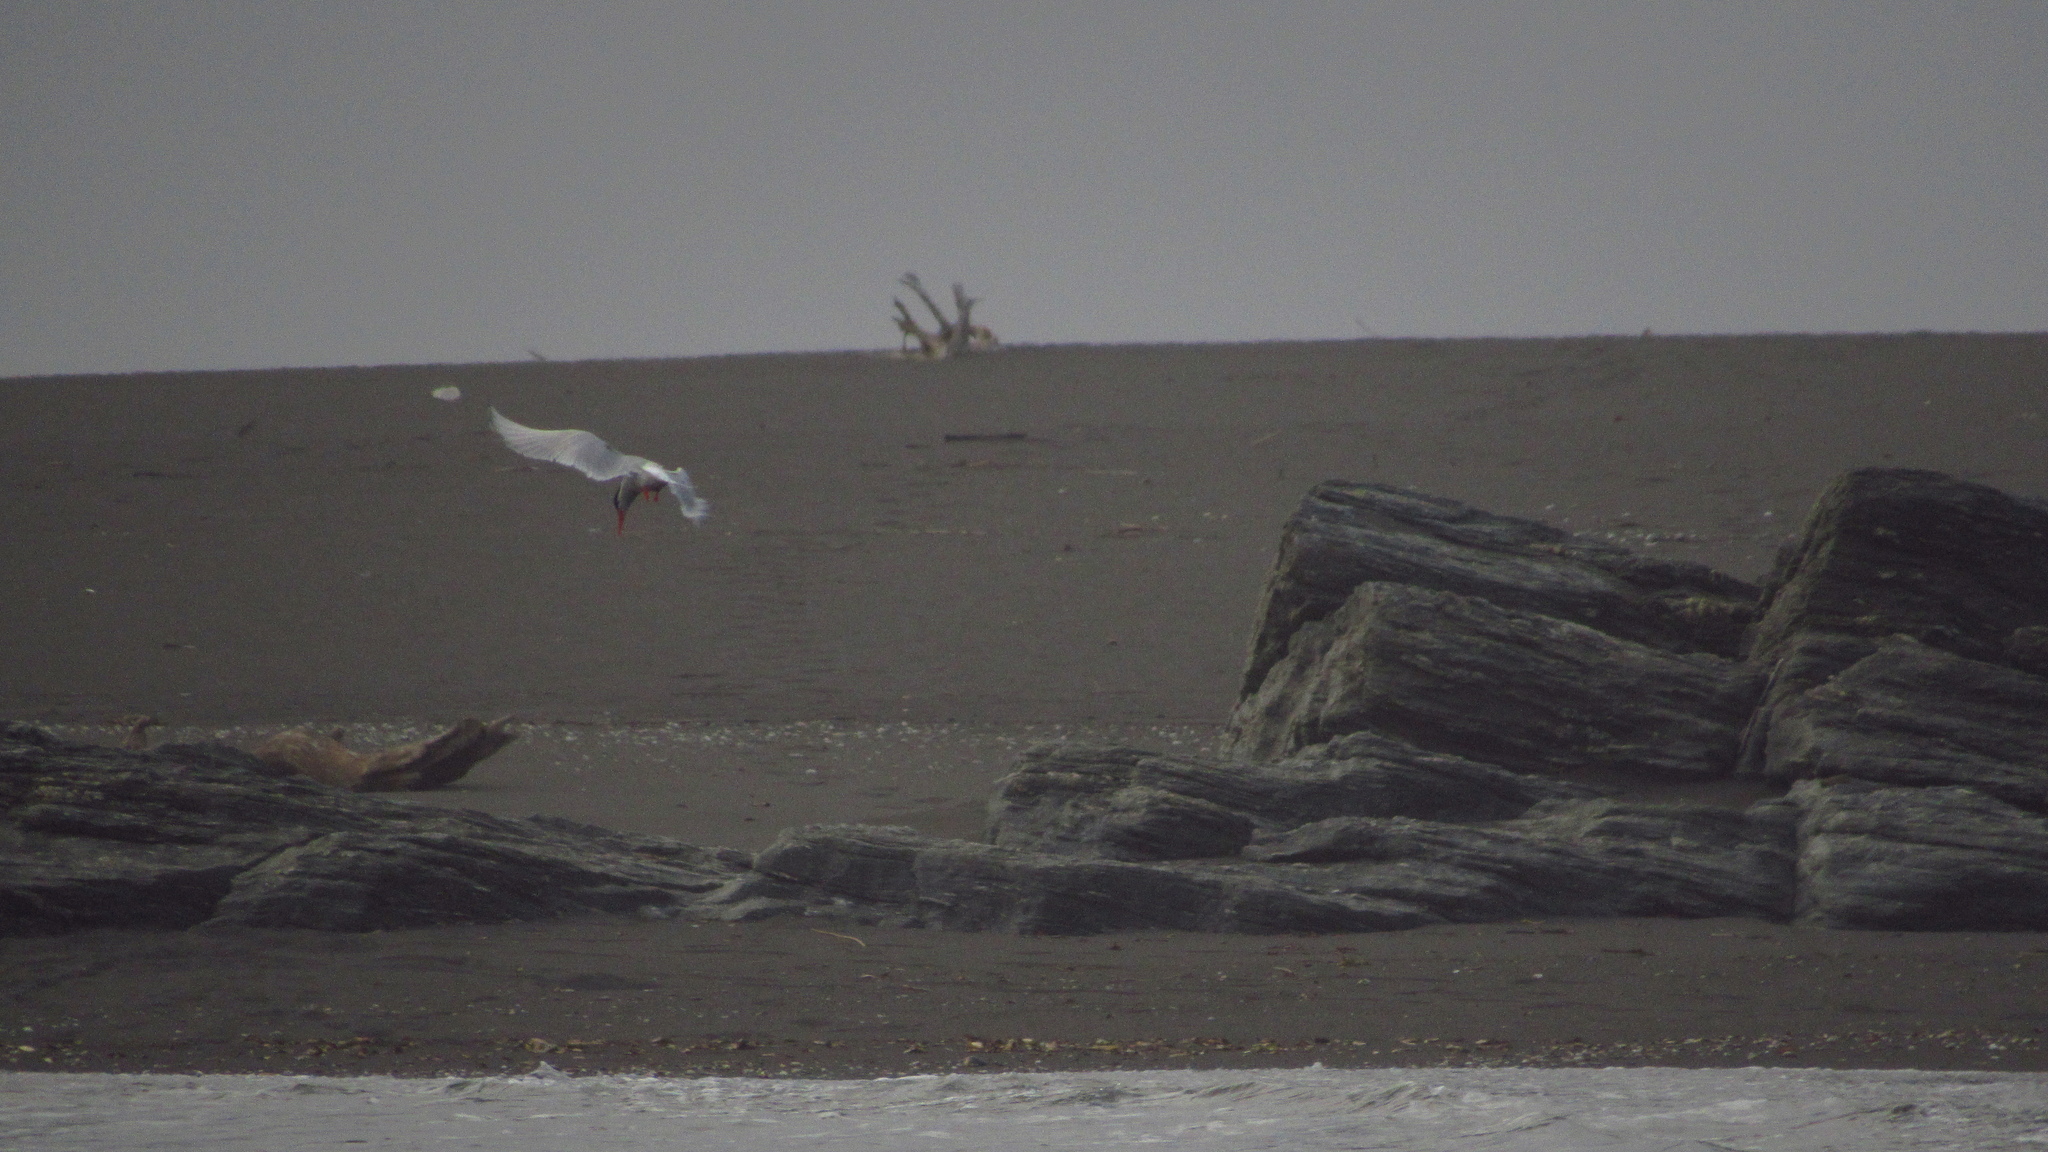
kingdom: Animalia
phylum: Chordata
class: Aves
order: Charadriiformes
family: Laridae
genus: Sterna
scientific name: Sterna hirundinacea
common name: South american tern
